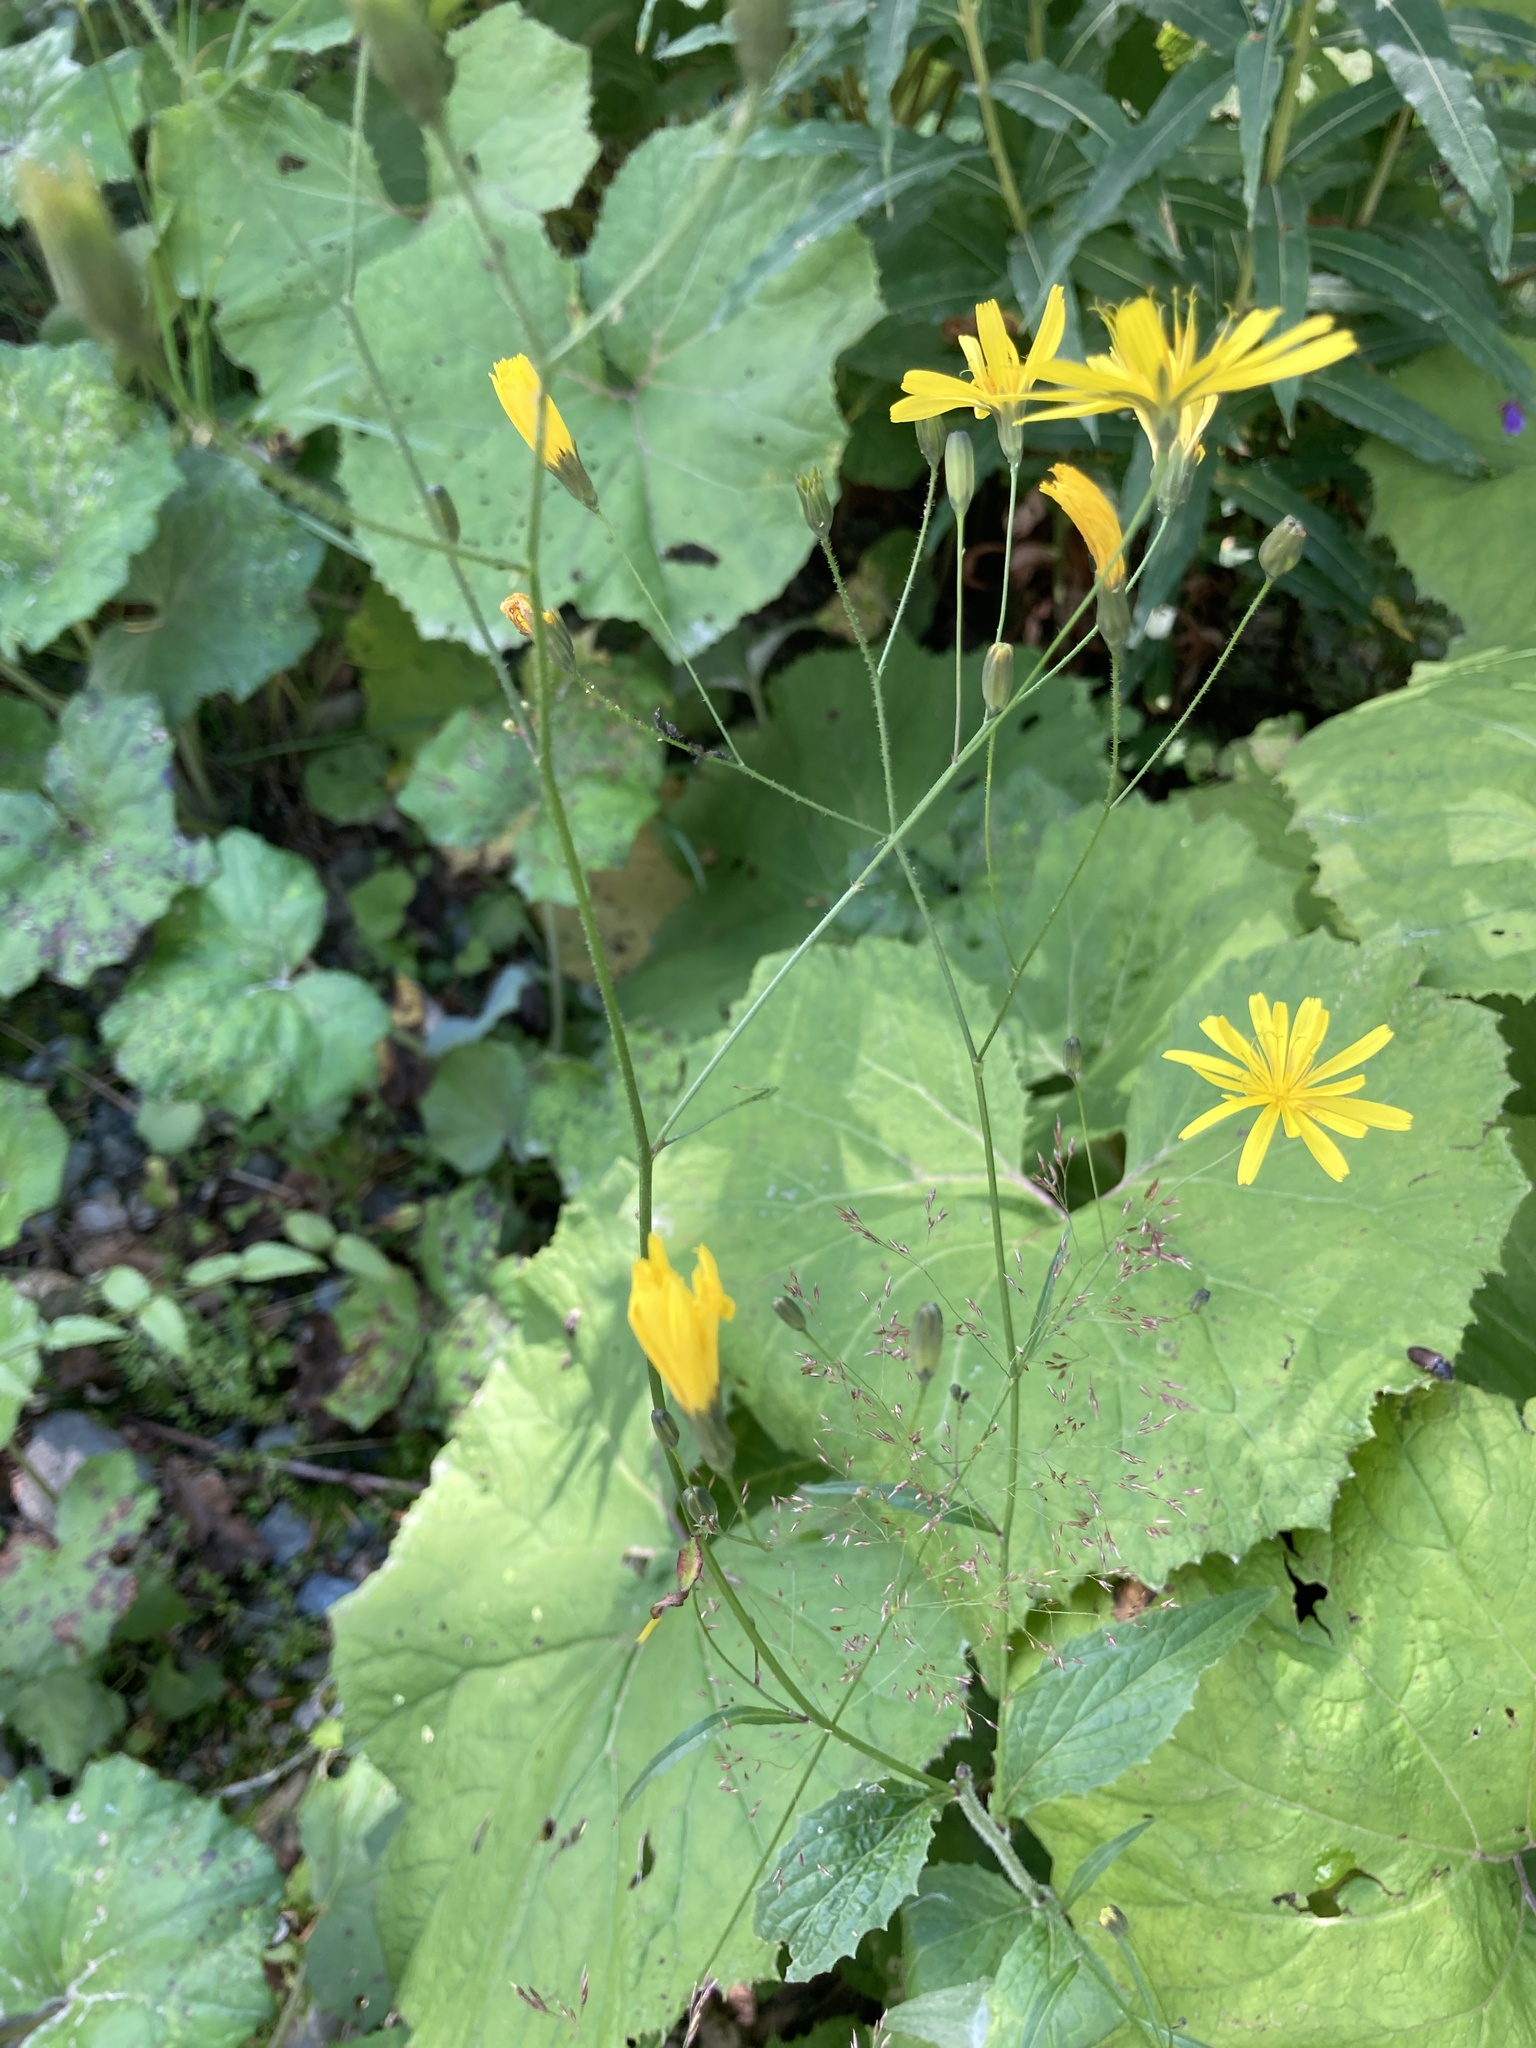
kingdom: Plantae
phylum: Tracheophyta
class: Magnoliopsida
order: Asterales
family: Asteraceae
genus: Lapsana
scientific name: Lapsana communis
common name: Nipplewort
